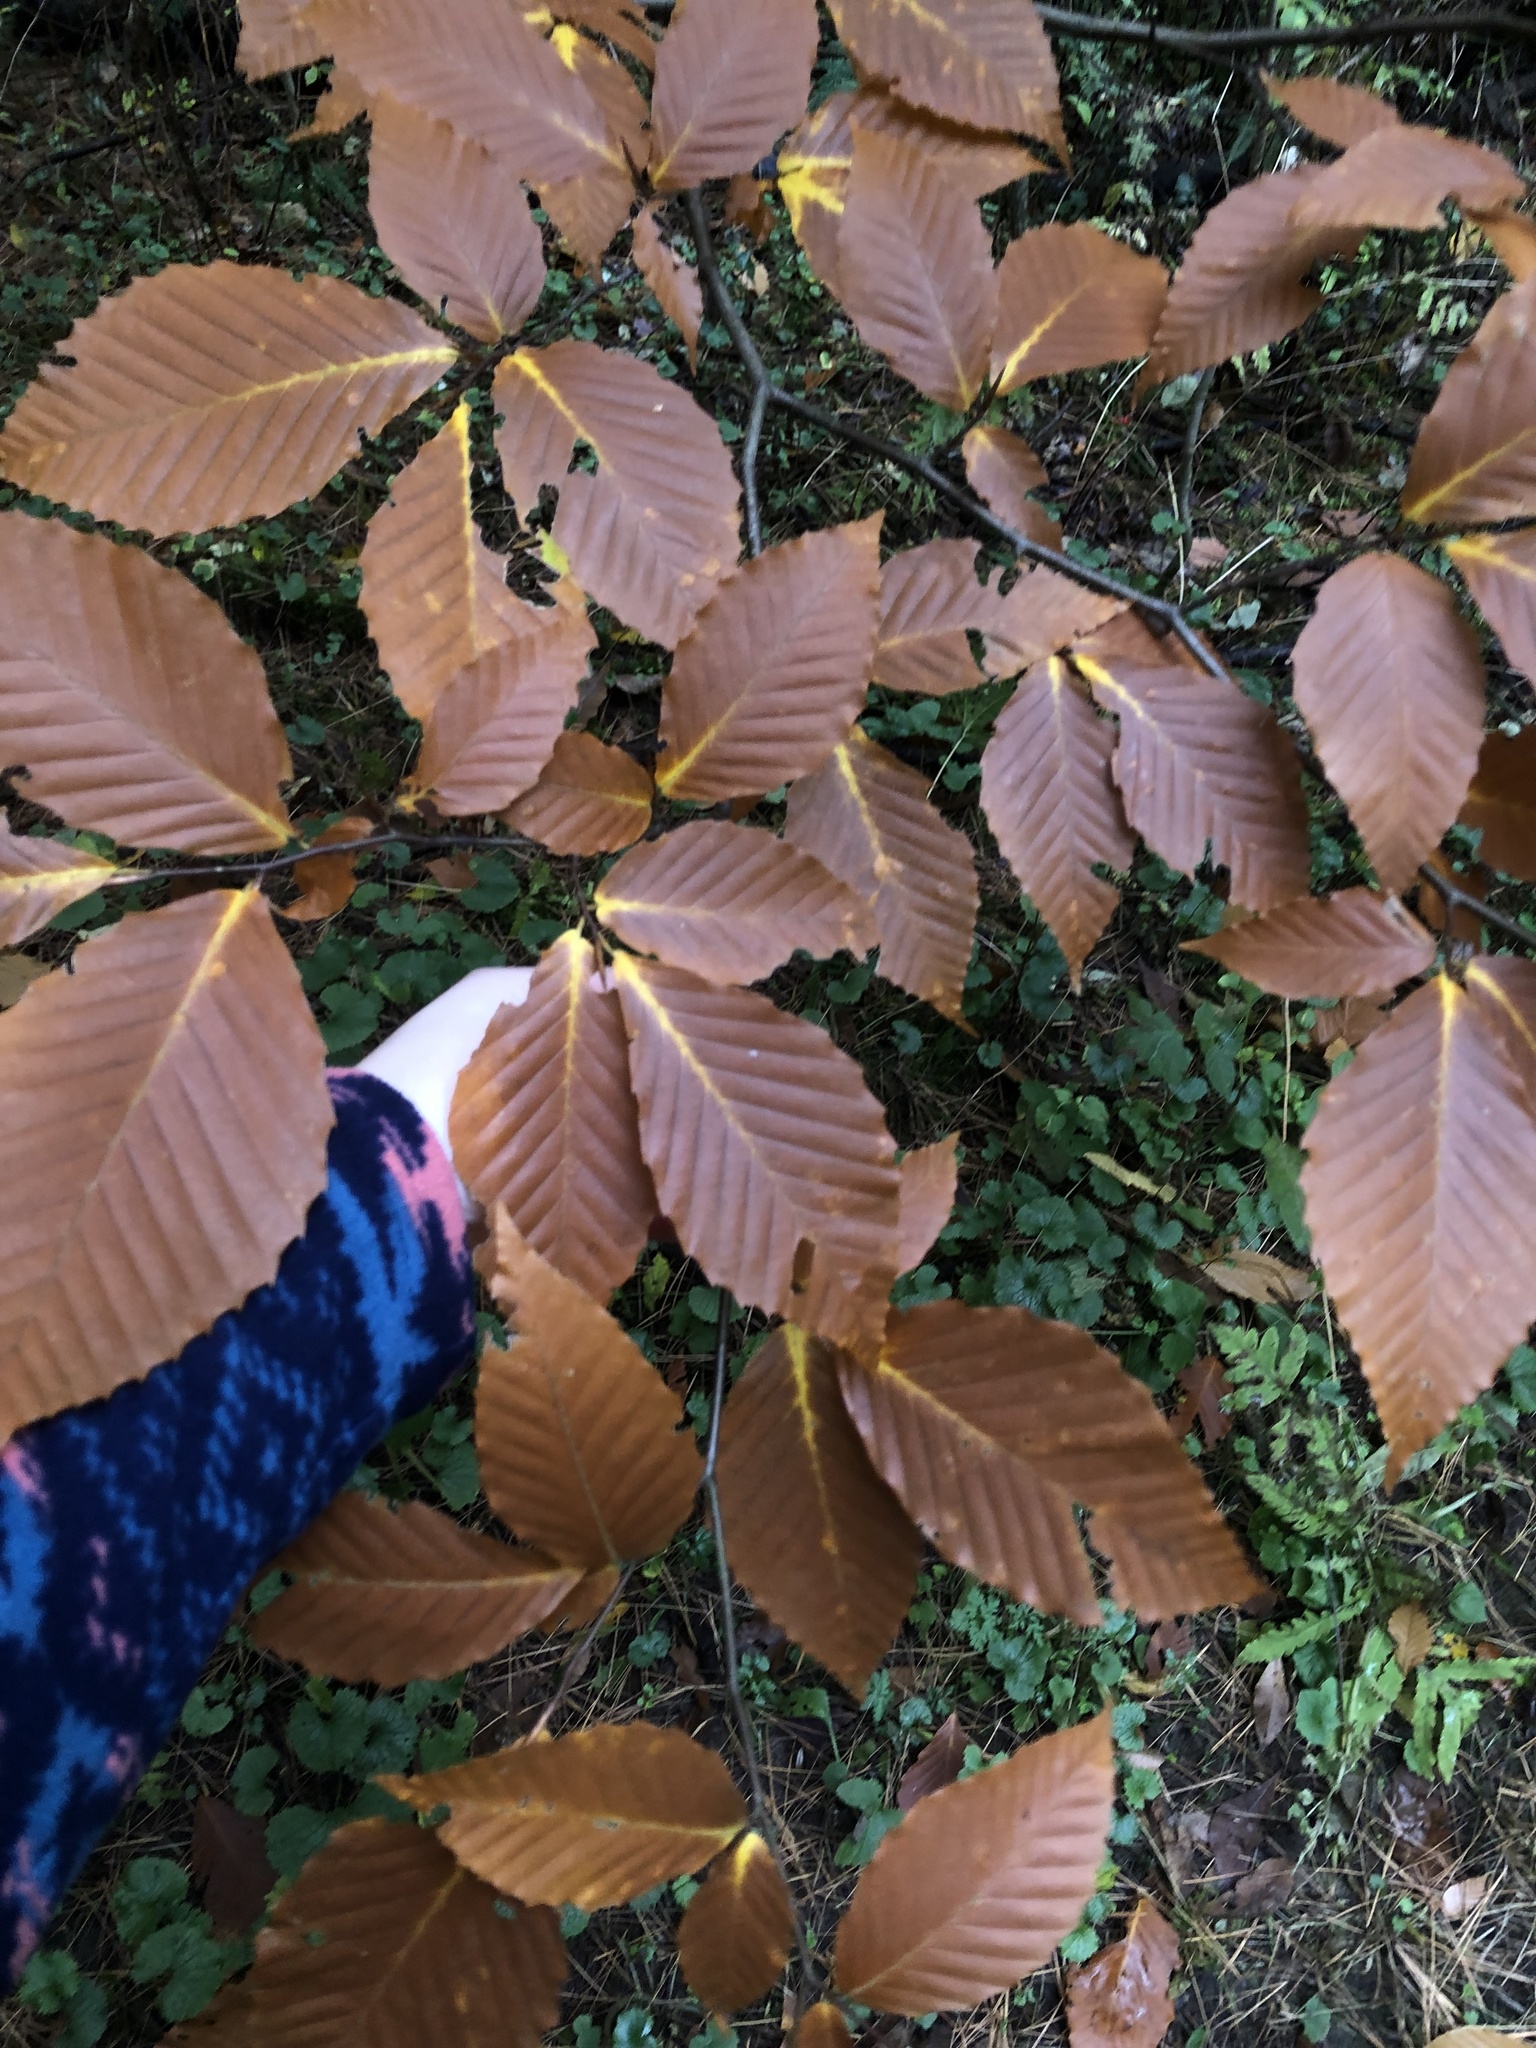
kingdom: Plantae
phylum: Tracheophyta
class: Magnoliopsida
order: Fagales
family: Fagaceae
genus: Fagus
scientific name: Fagus grandifolia
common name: American beech
